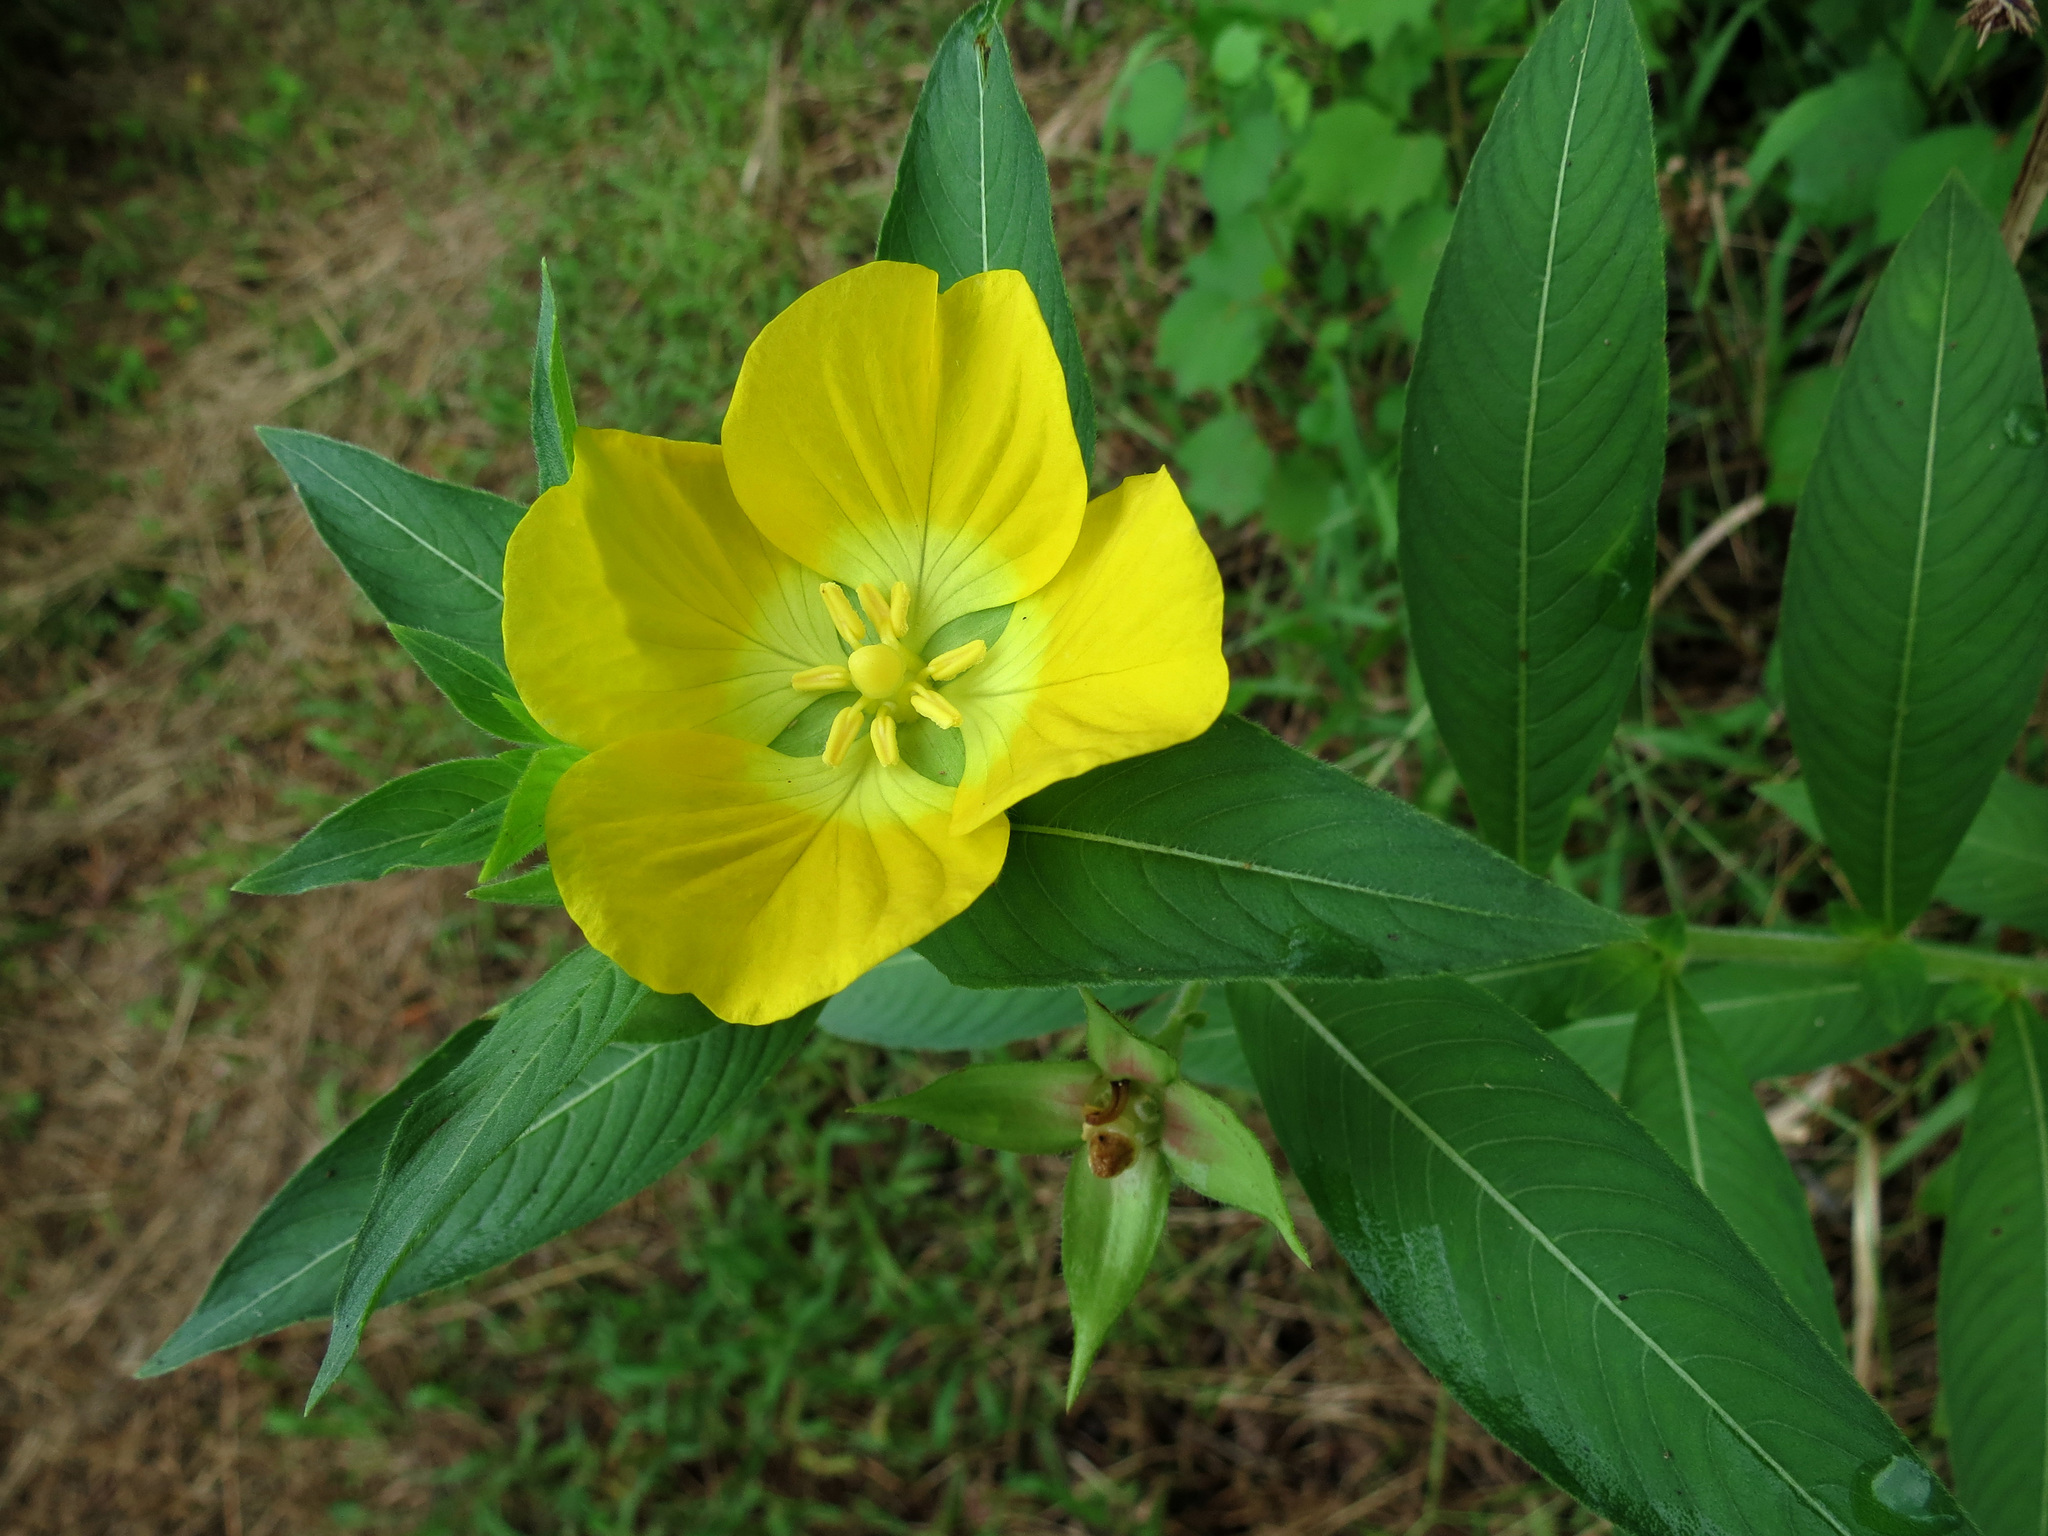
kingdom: Plantae
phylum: Tracheophyta
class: Magnoliopsida
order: Myrtales
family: Onagraceae
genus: Ludwigia
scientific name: Ludwigia peruviana
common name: Peruvian primrose-willow
